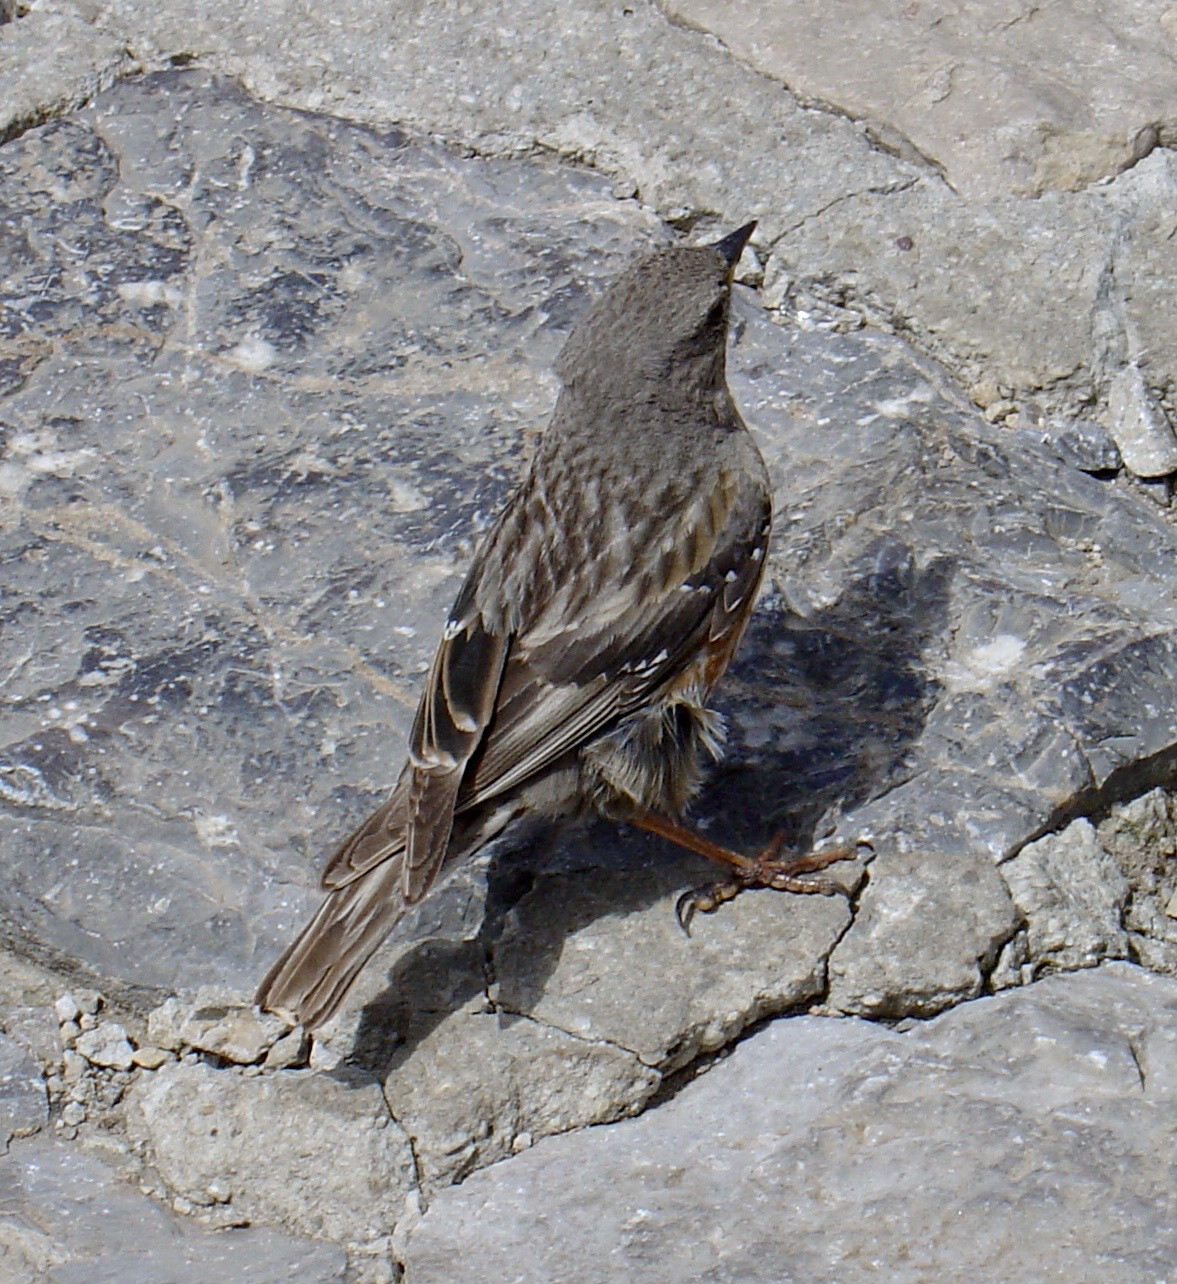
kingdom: Animalia
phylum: Chordata
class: Aves
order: Passeriformes
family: Prunellidae
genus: Prunella
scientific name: Prunella collaris
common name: Alpine accentor
